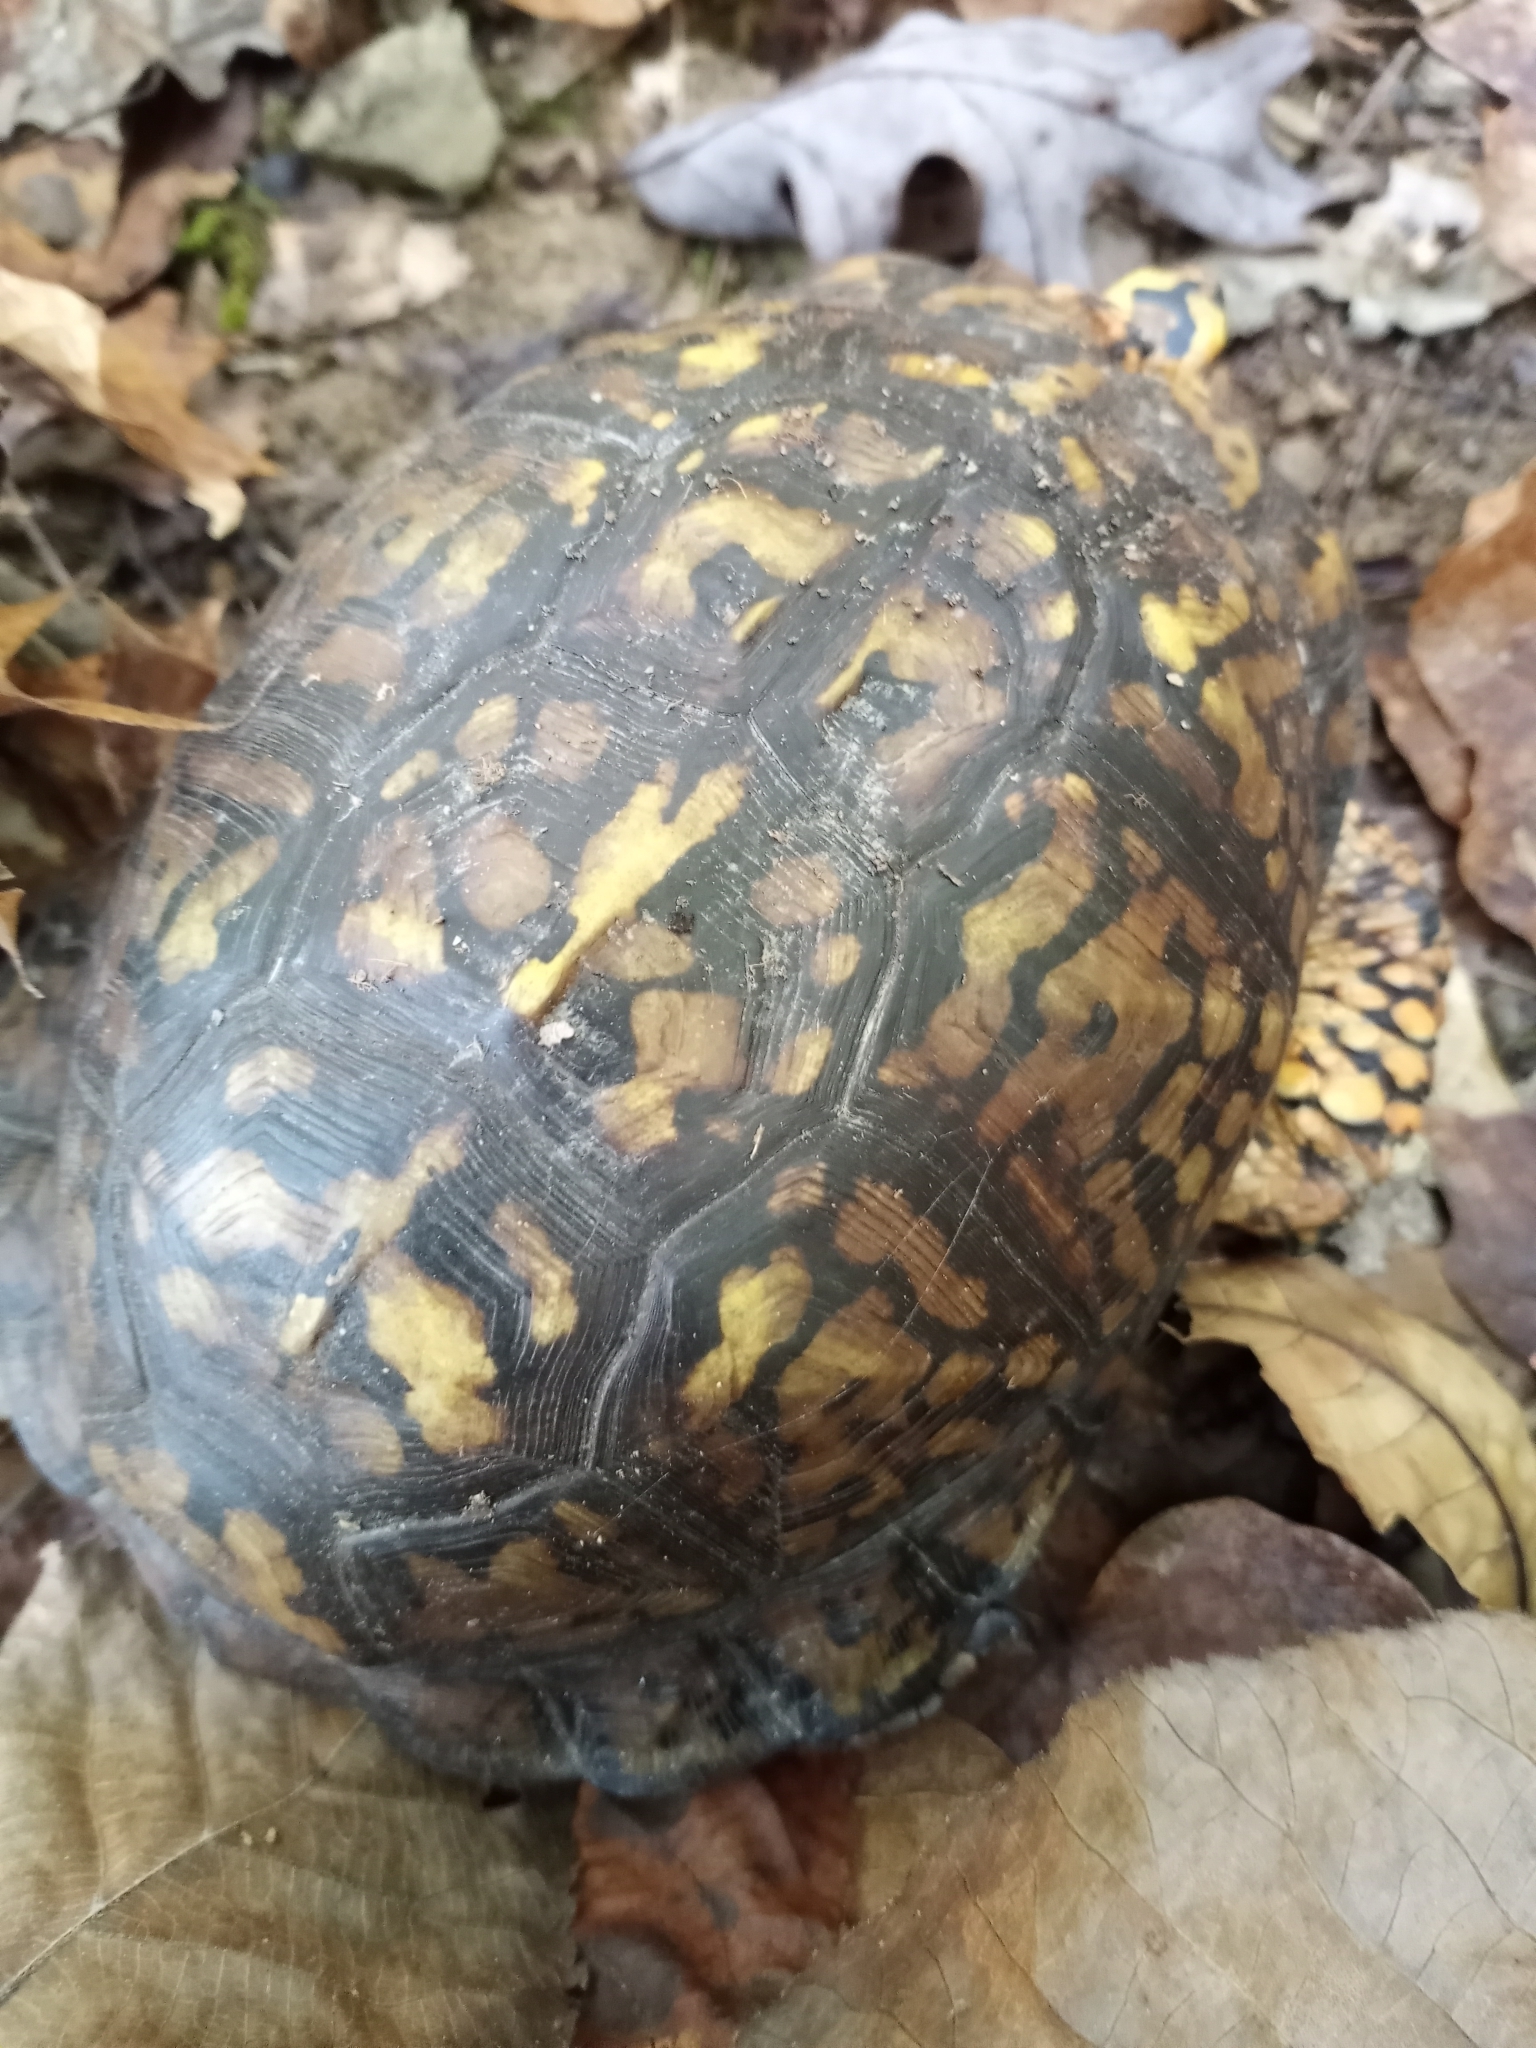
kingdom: Animalia
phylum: Chordata
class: Testudines
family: Emydidae
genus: Terrapene
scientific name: Terrapene carolina
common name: Common box turtle
